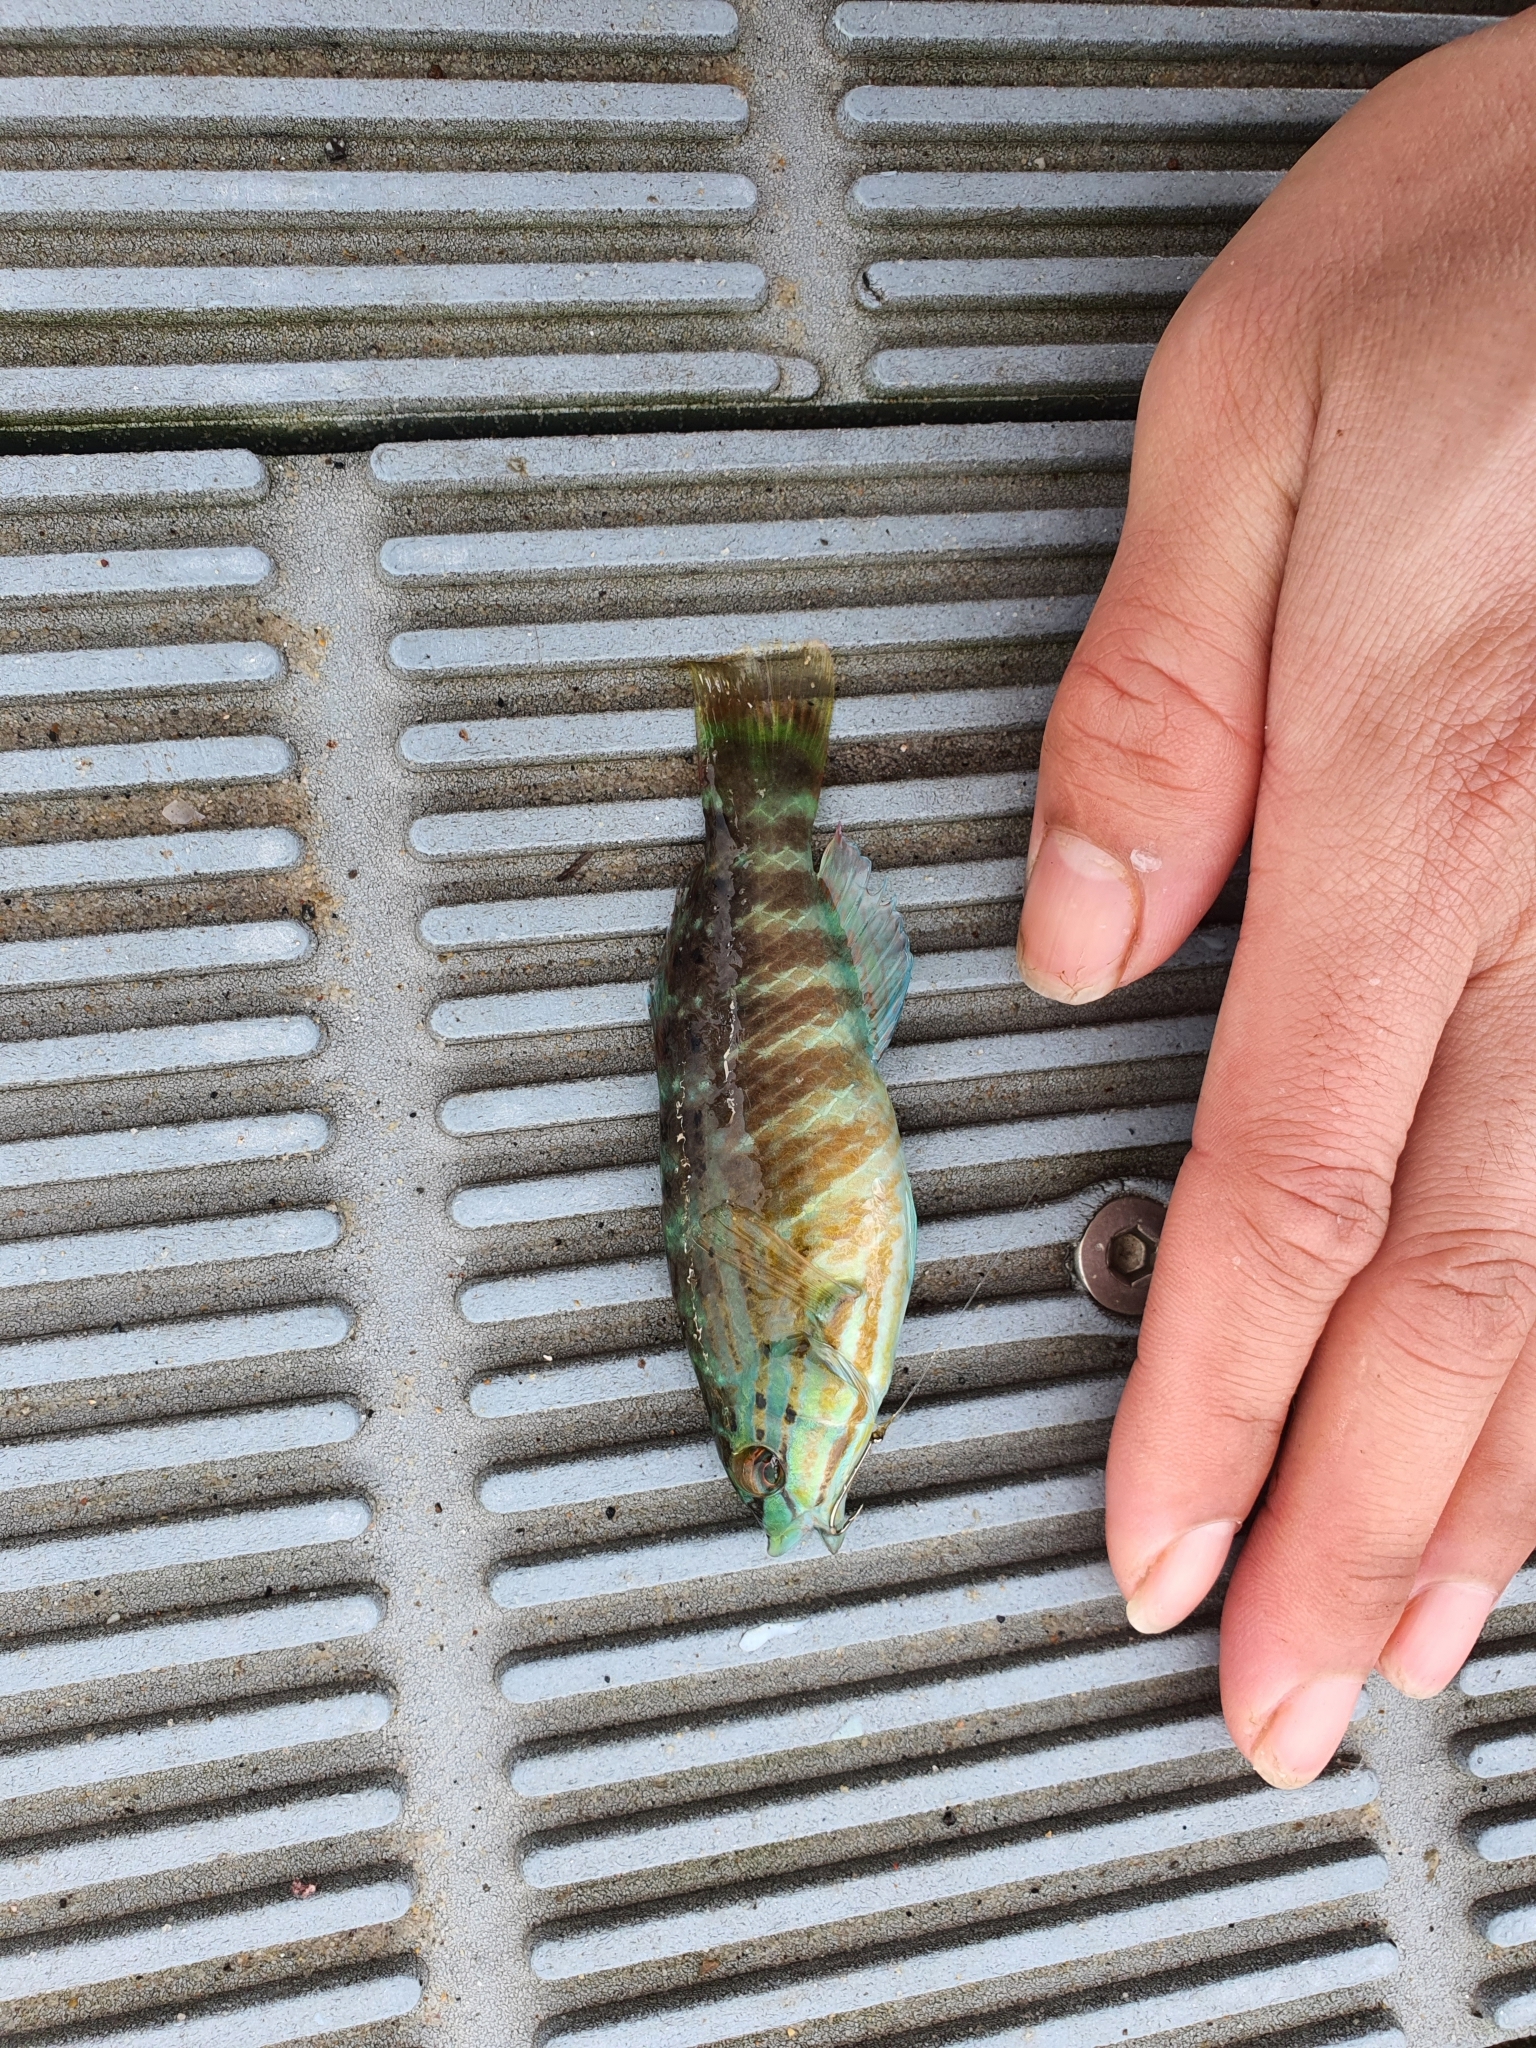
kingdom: Animalia
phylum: Chordata
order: Perciformes
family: Labridae
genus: Pseudolabrus
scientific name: Pseudolabrus guentheri
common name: Günther's wrasse
